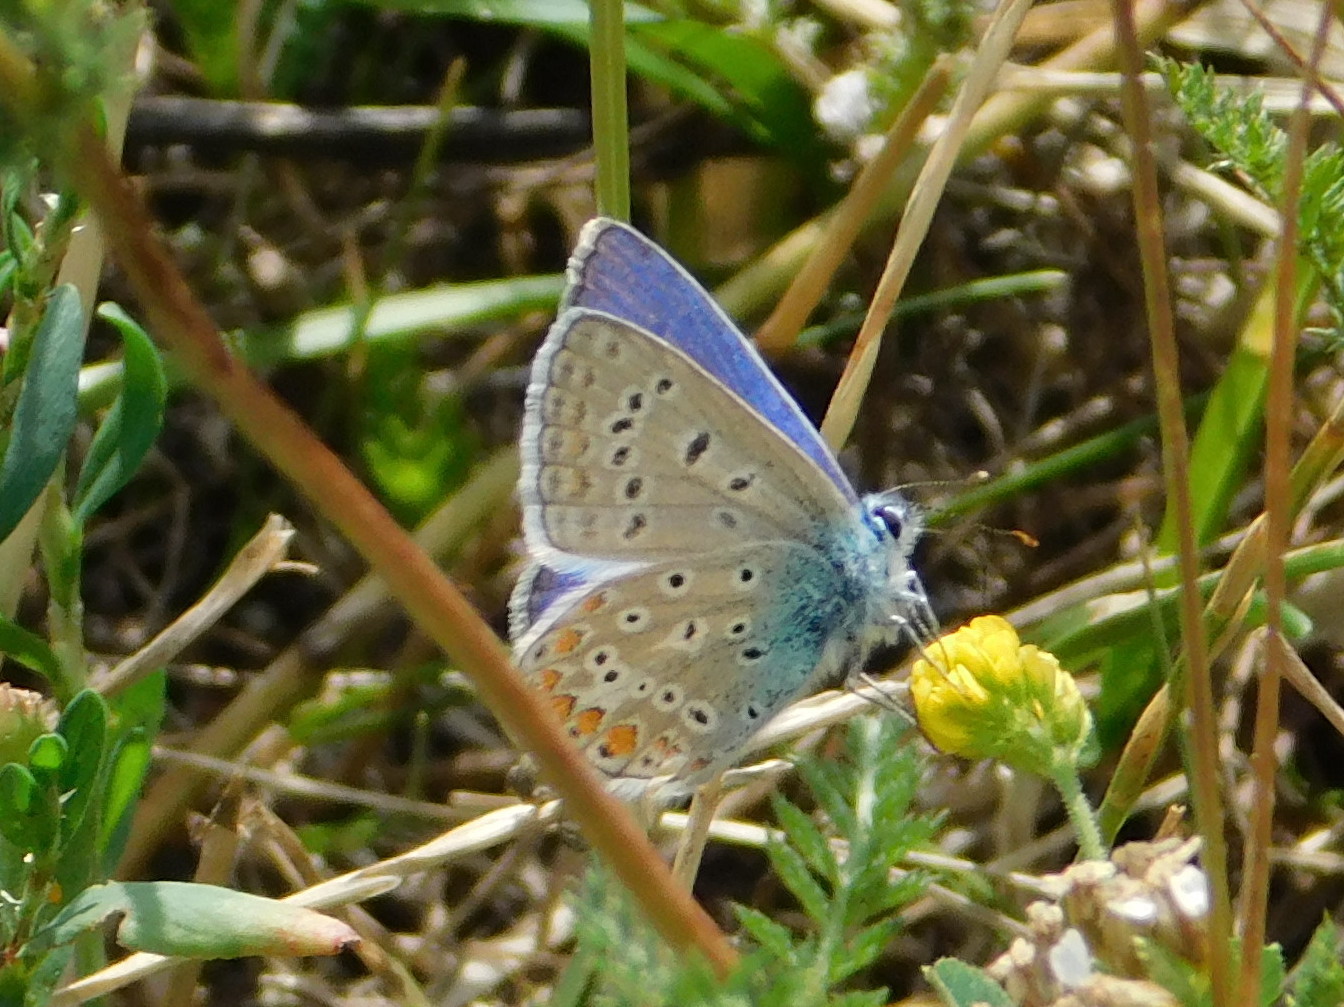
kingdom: Animalia
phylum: Arthropoda
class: Insecta
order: Lepidoptera
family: Lycaenidae
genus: Polyommatus
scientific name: Polyommatus icarus
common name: Common blue
